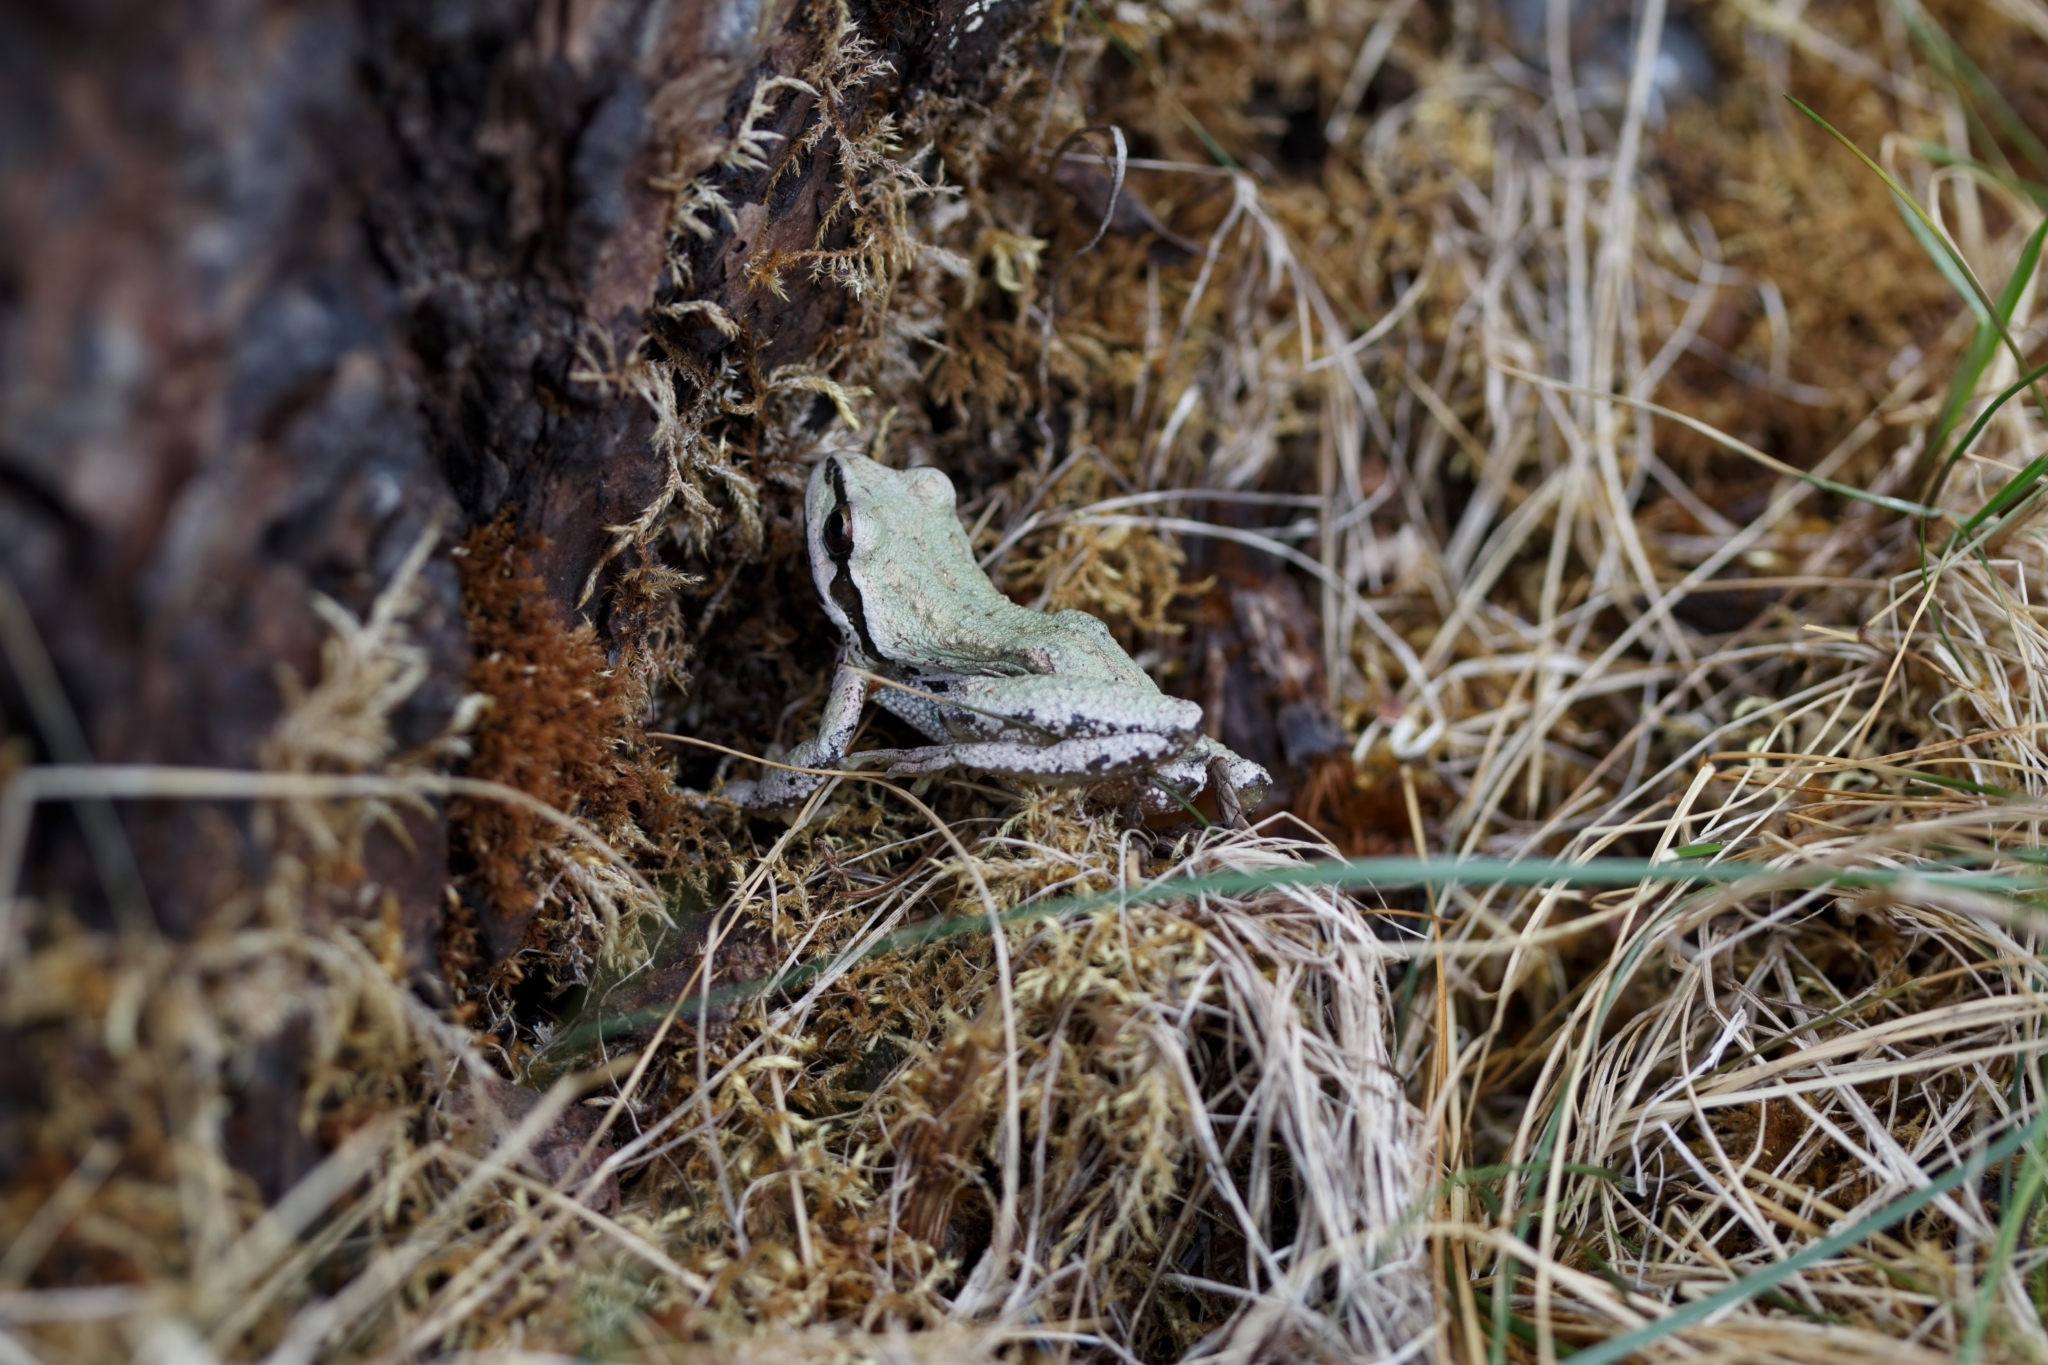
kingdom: Animalia
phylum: Chordata
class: Amphibia
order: Anura
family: Hylidae
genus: Pseudacris
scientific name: Pseudacris regilla
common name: Pacific chorus frog
